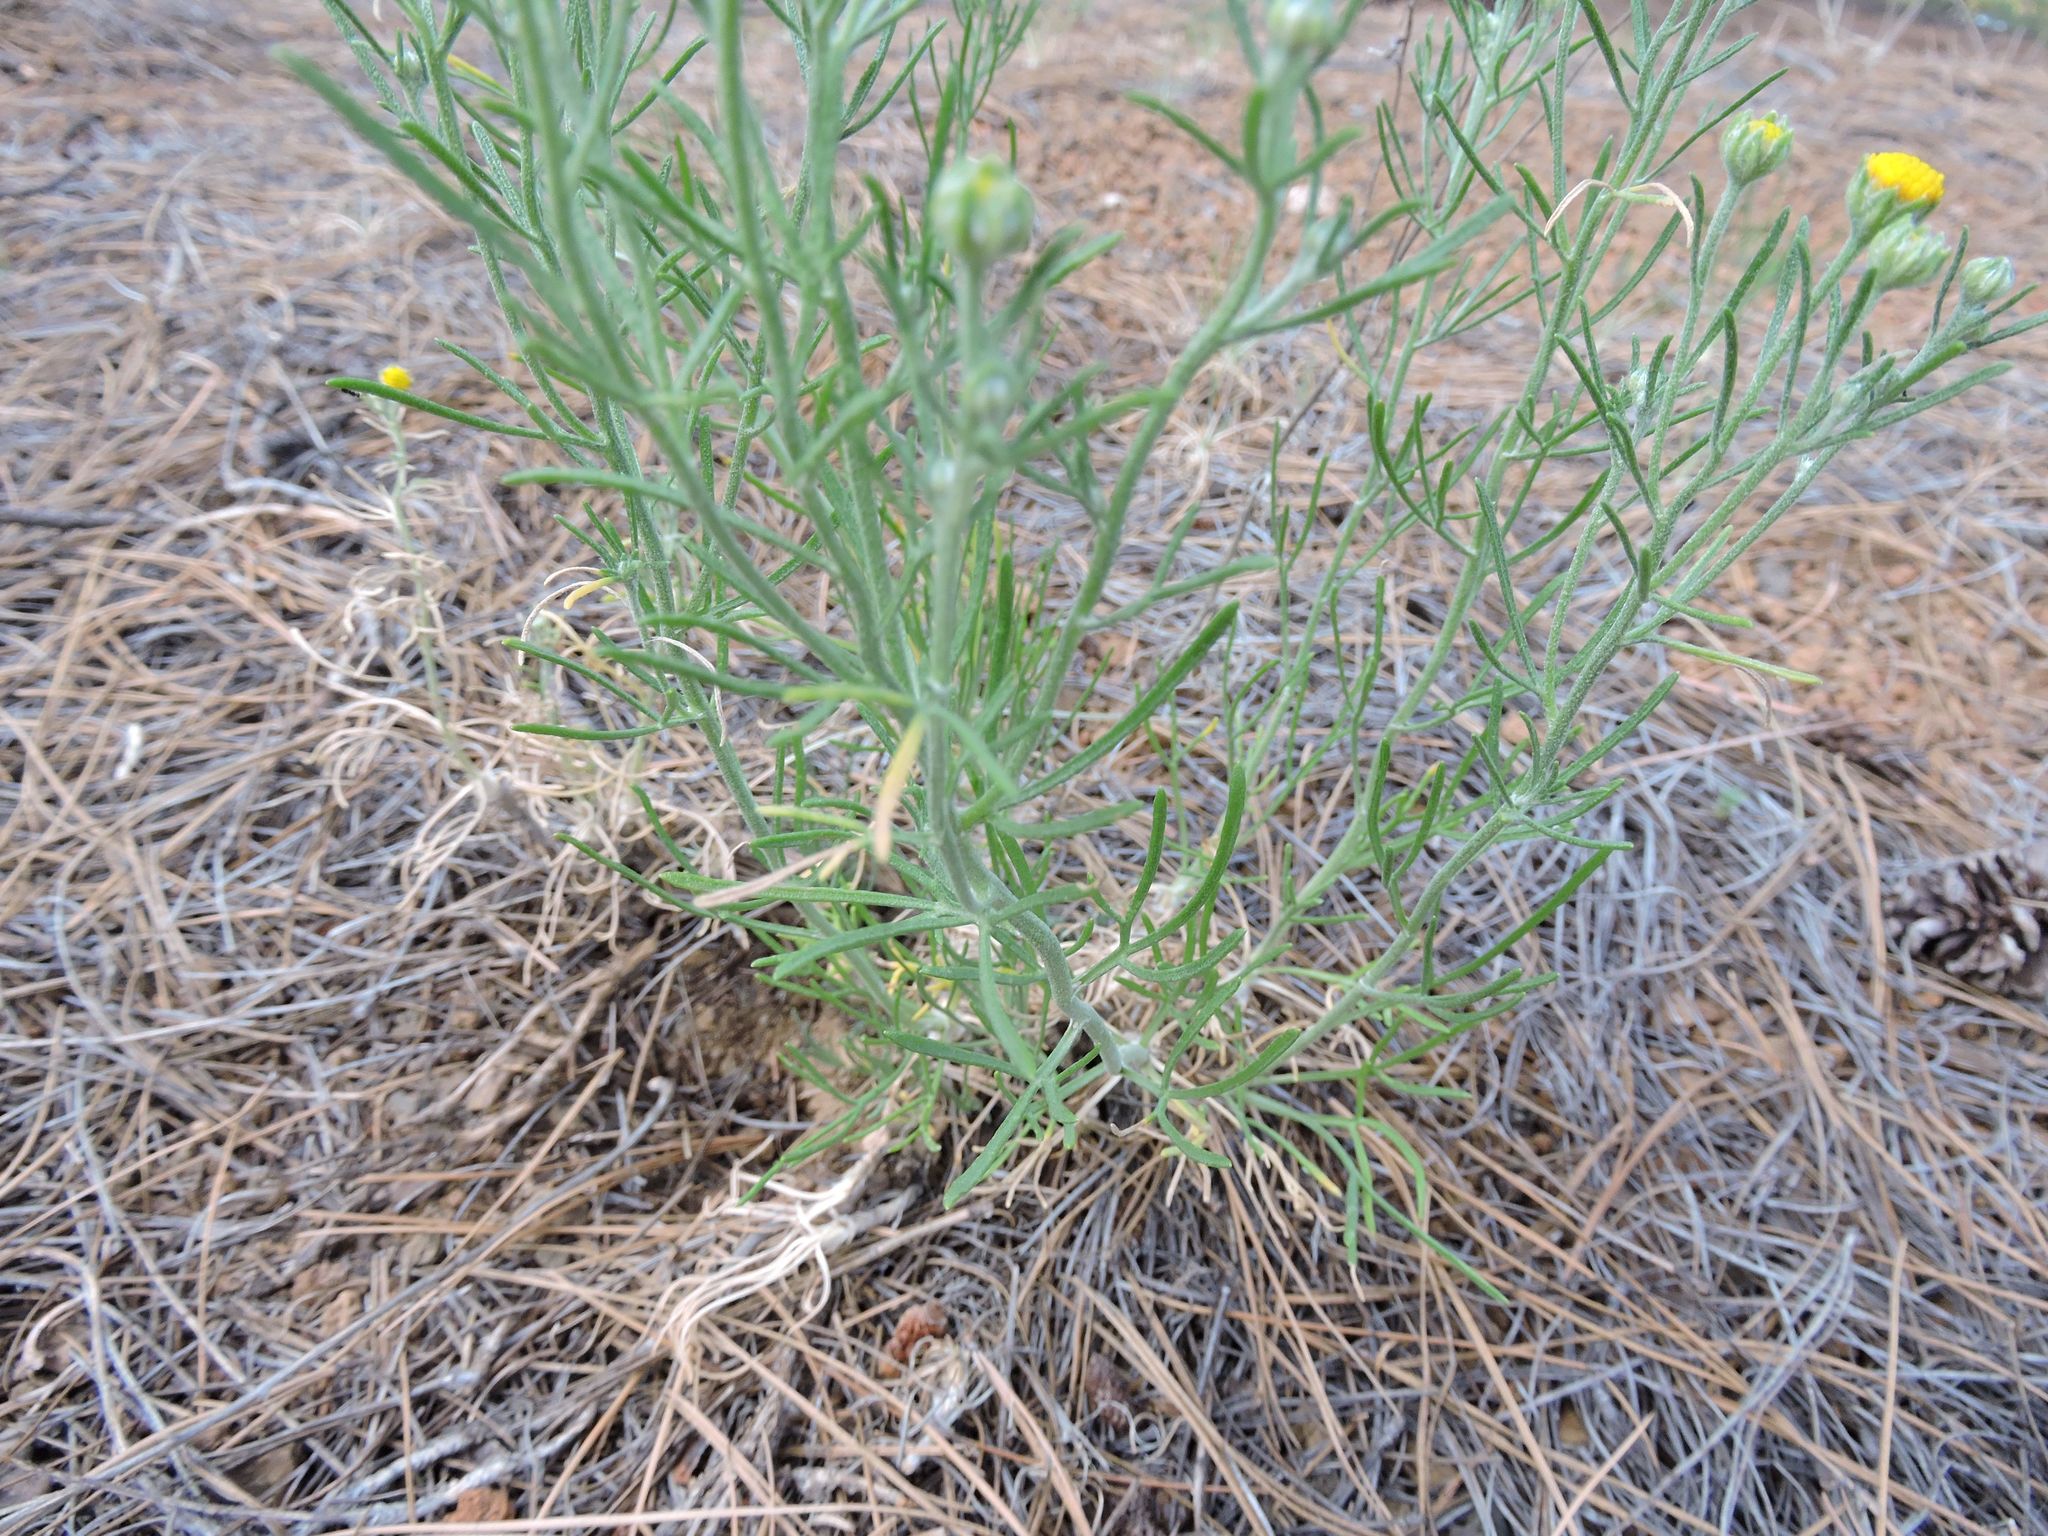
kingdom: Plantae
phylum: Tracheophyta
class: Magnoliopsida
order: Asterales
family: Asteraceae
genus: Hymenoxys
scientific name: Hymenoxys odorata
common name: Bitter rubberweed
